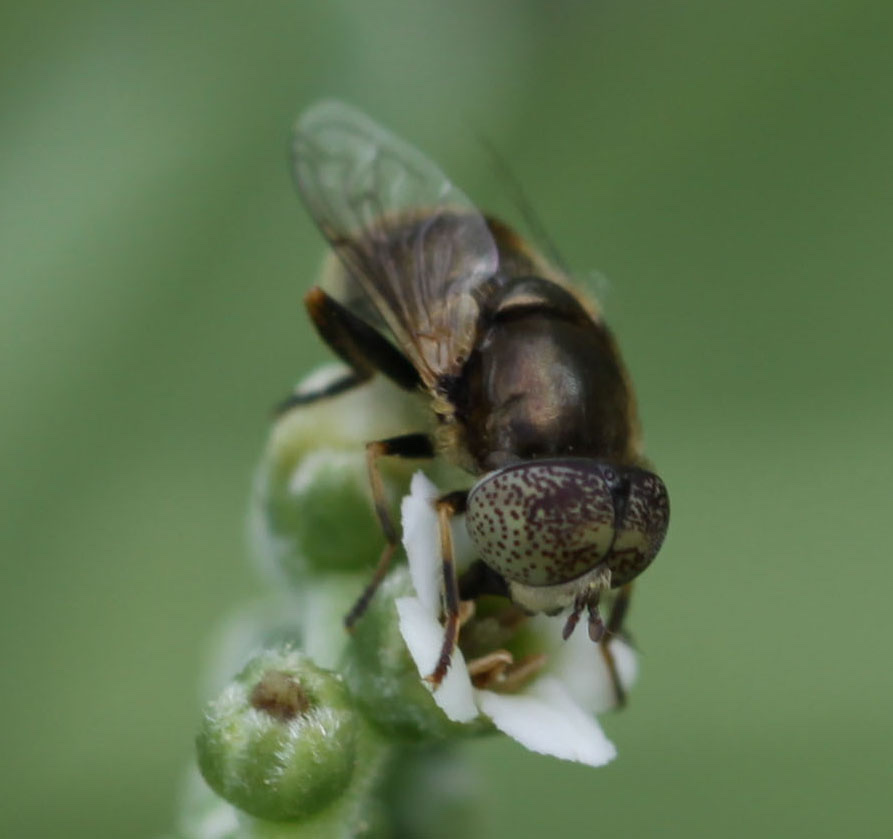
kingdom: Animalia
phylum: Arthropoda
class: Insecta
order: Diptera
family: Syrphidae
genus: Eristalinus
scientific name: Eristalinus aeneus
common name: Syrphid fly
